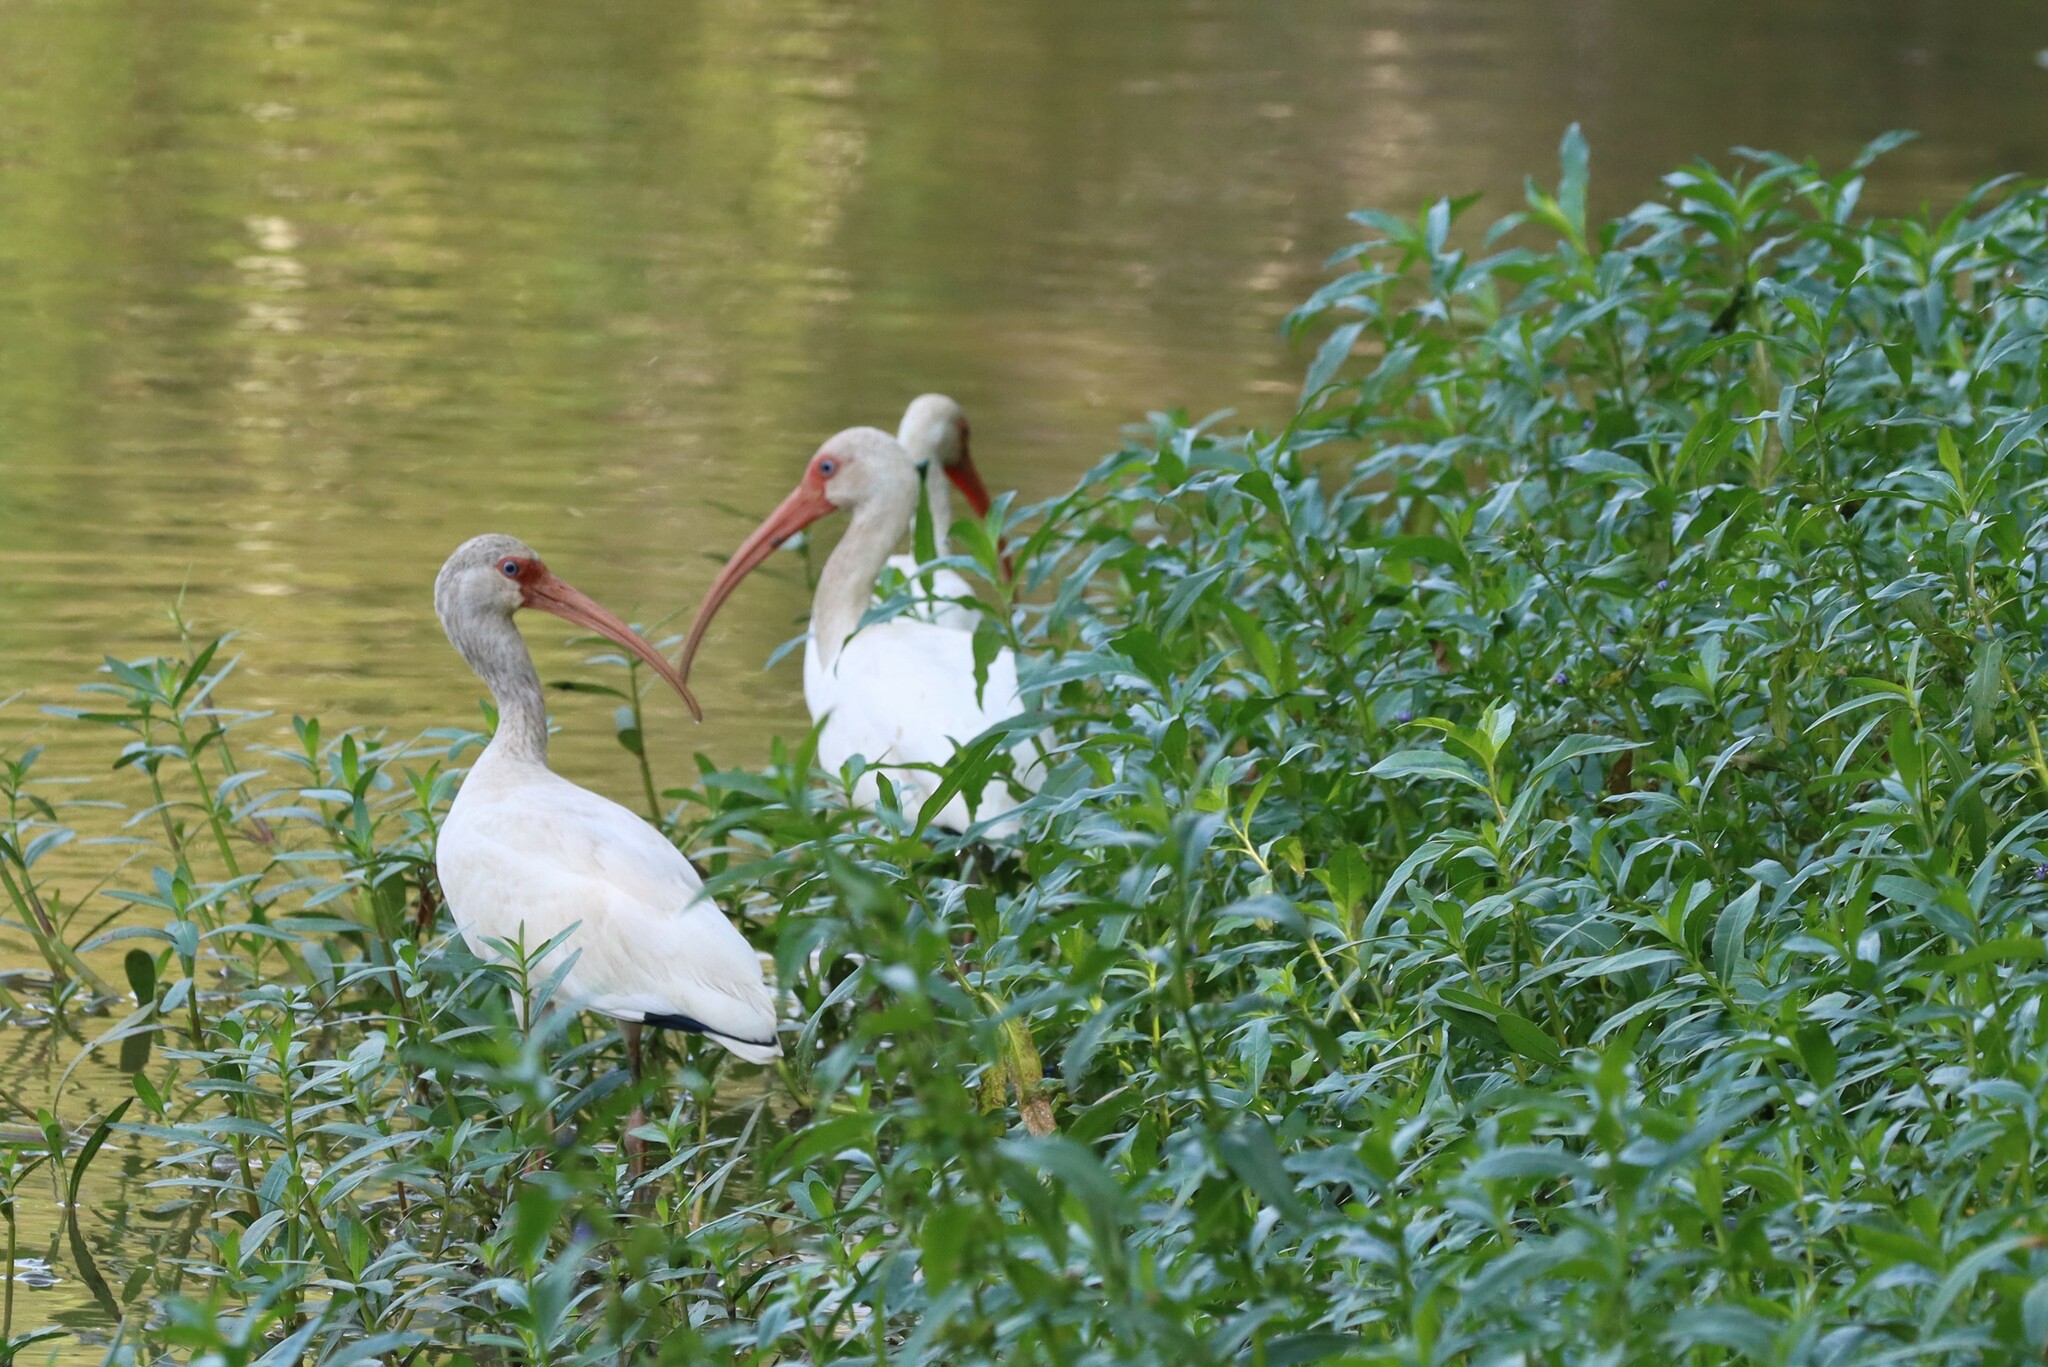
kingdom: Animalia
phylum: Chordata
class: Aves
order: Pelecaniformes
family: Threskiornithidae
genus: Eudocimus
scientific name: Eudocimus albus
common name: White ibis
